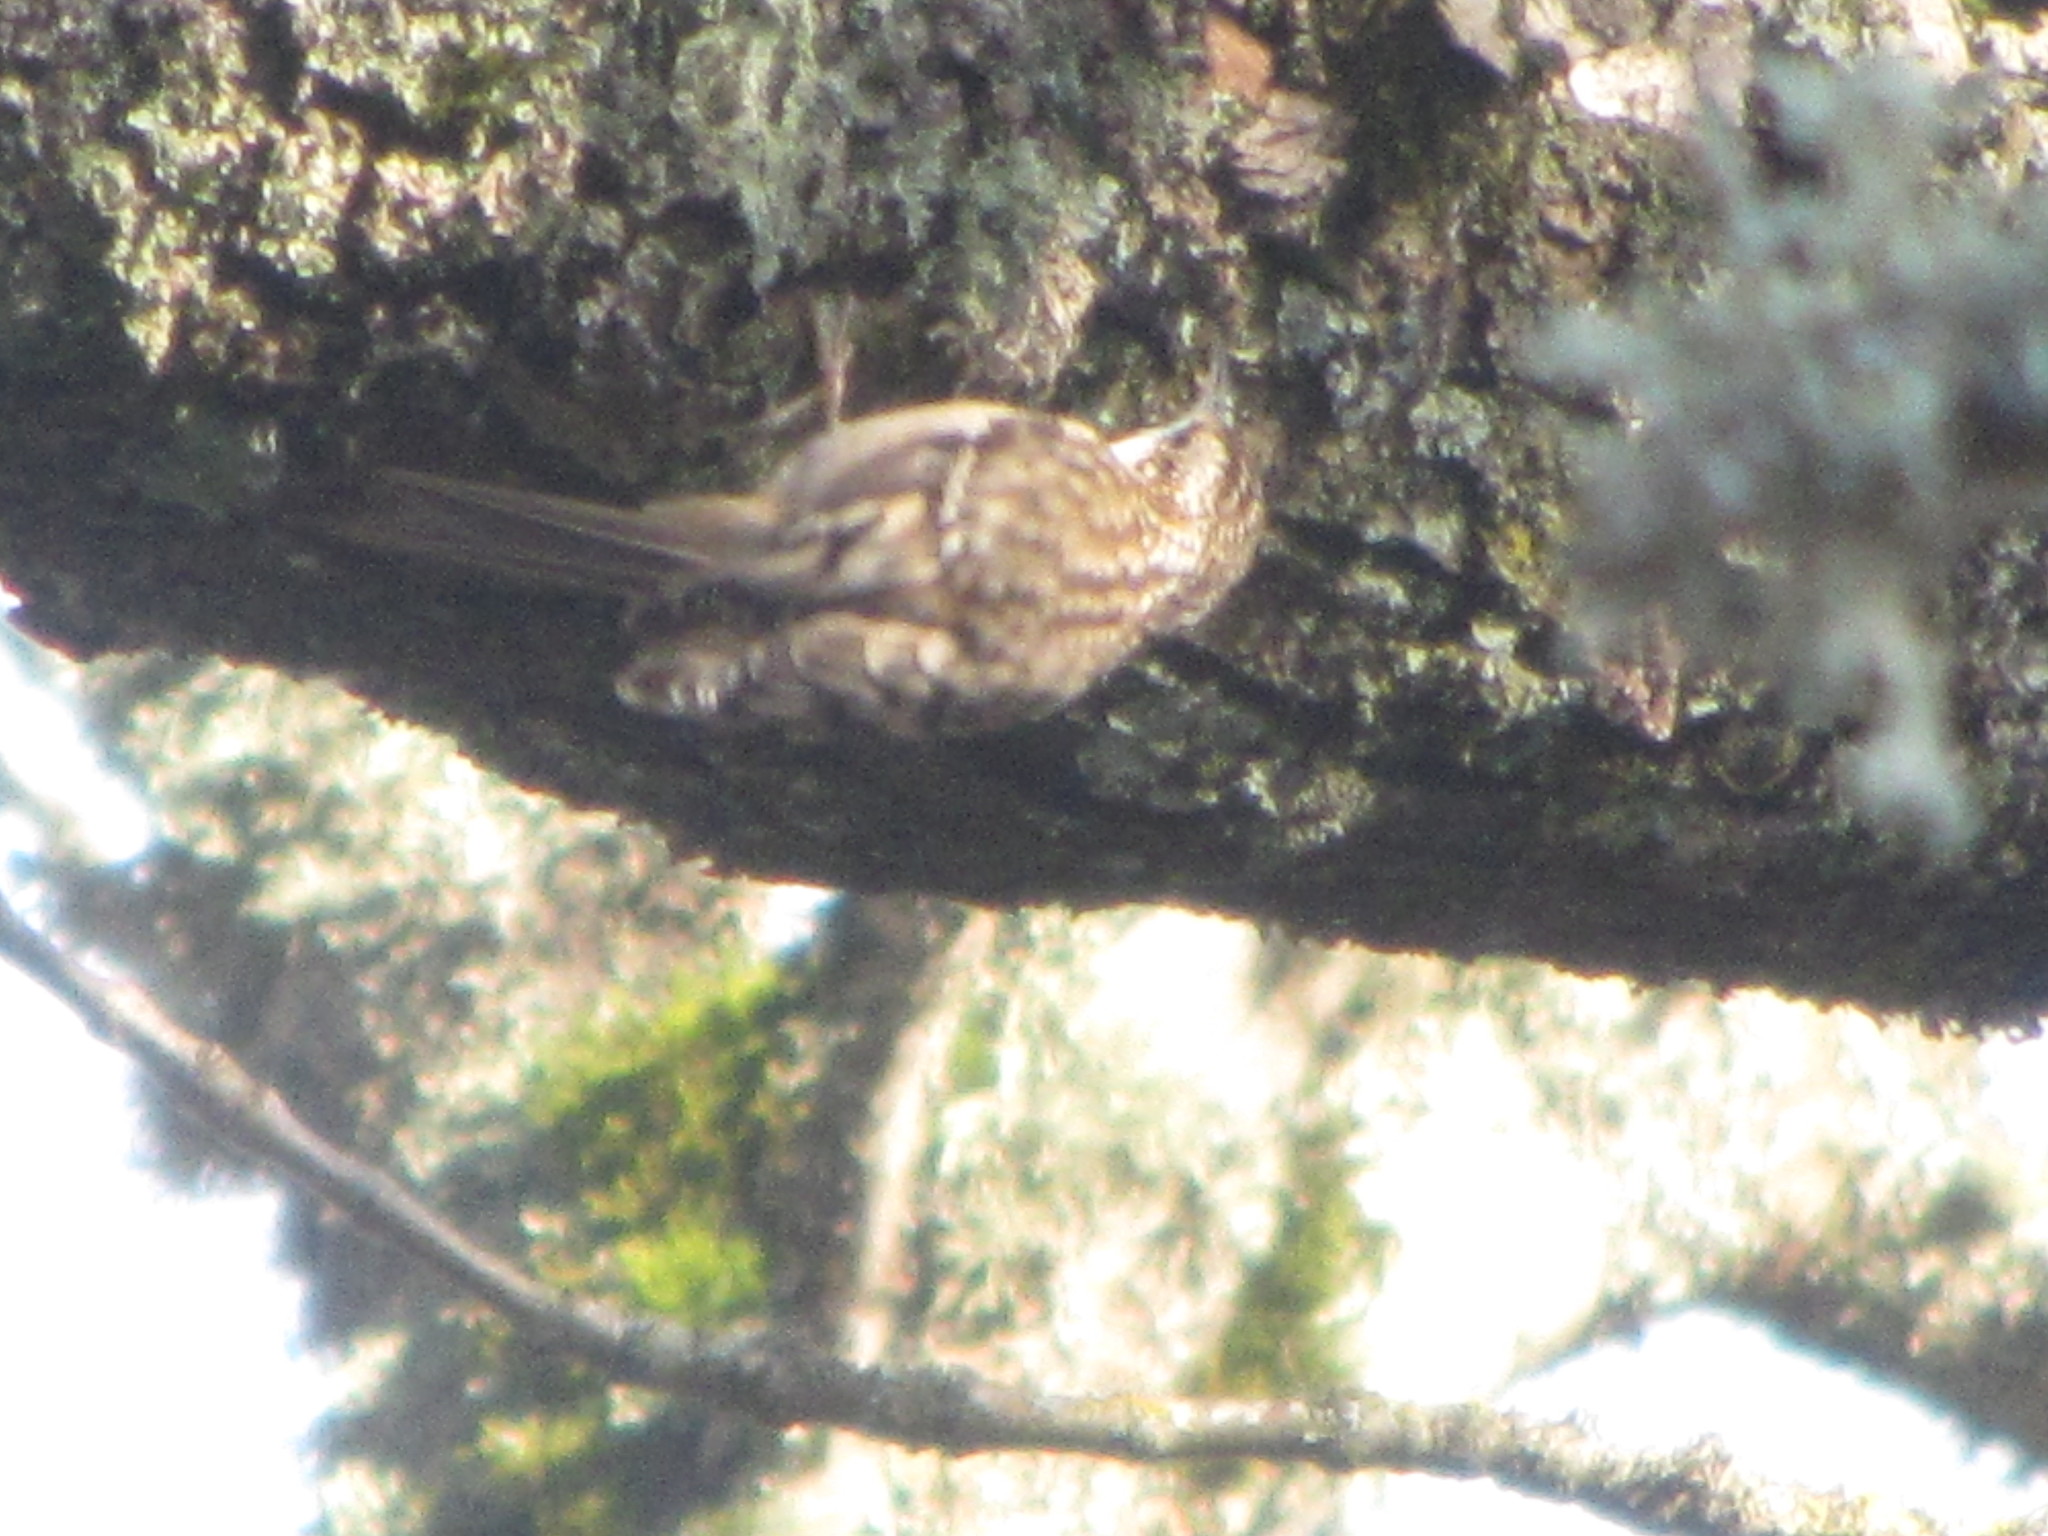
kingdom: Animalia
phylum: Chordata
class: Aves
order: Passeriformes
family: Certhiidae
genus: Certhia
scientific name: Certhia americana
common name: Brown creeper
